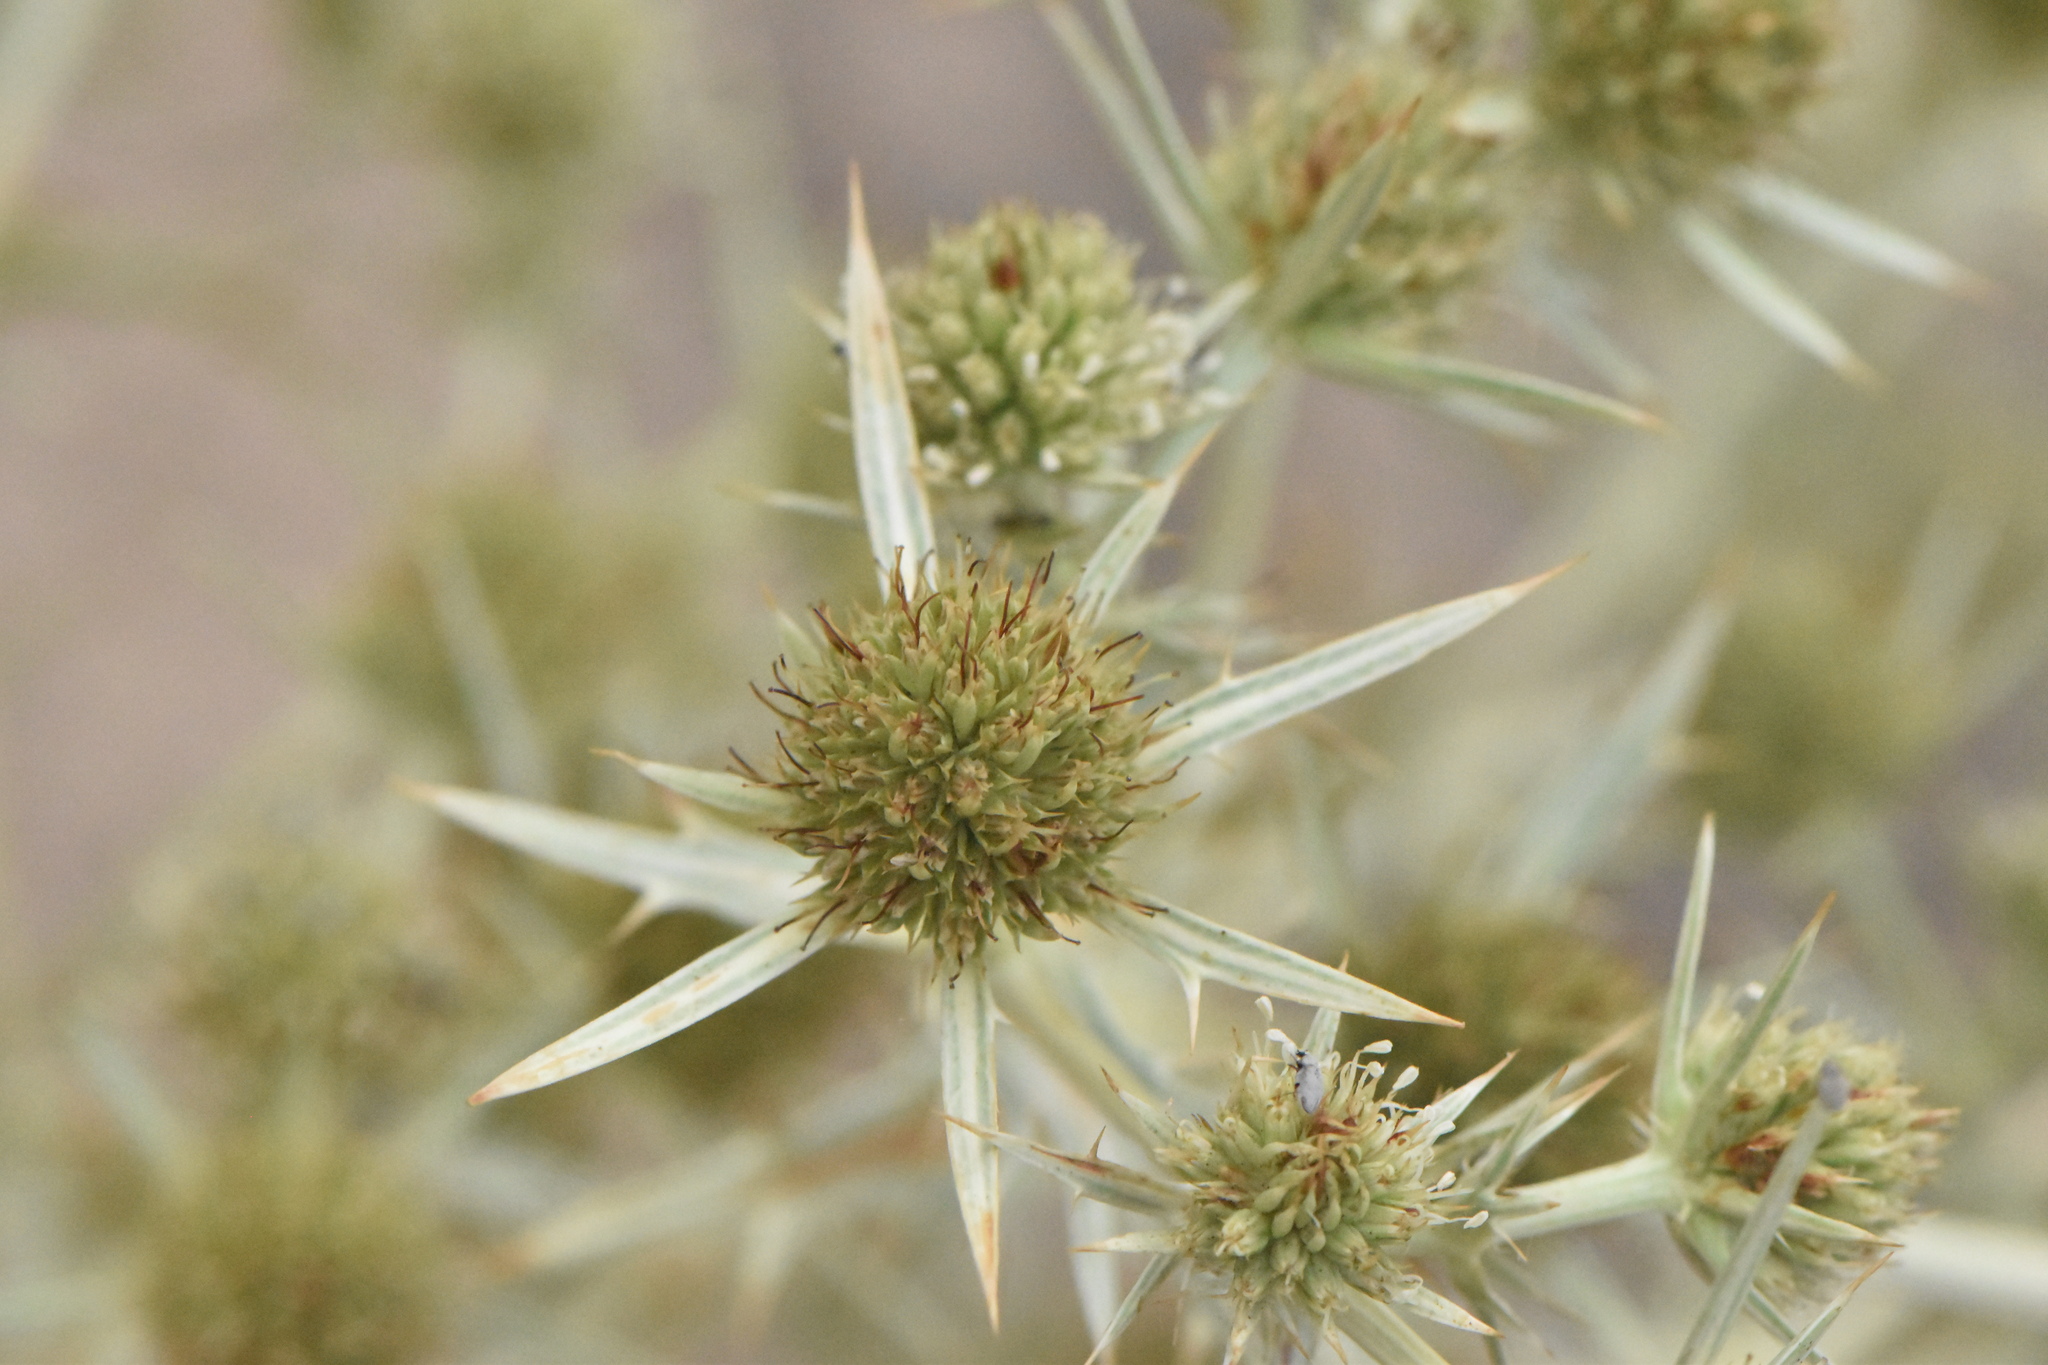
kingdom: Plantae
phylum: Tracheophyta
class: Magnoliopsida
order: Apiales
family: Apiaceae
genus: Eryngium
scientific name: Eryngium campestre
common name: Field eryngo
